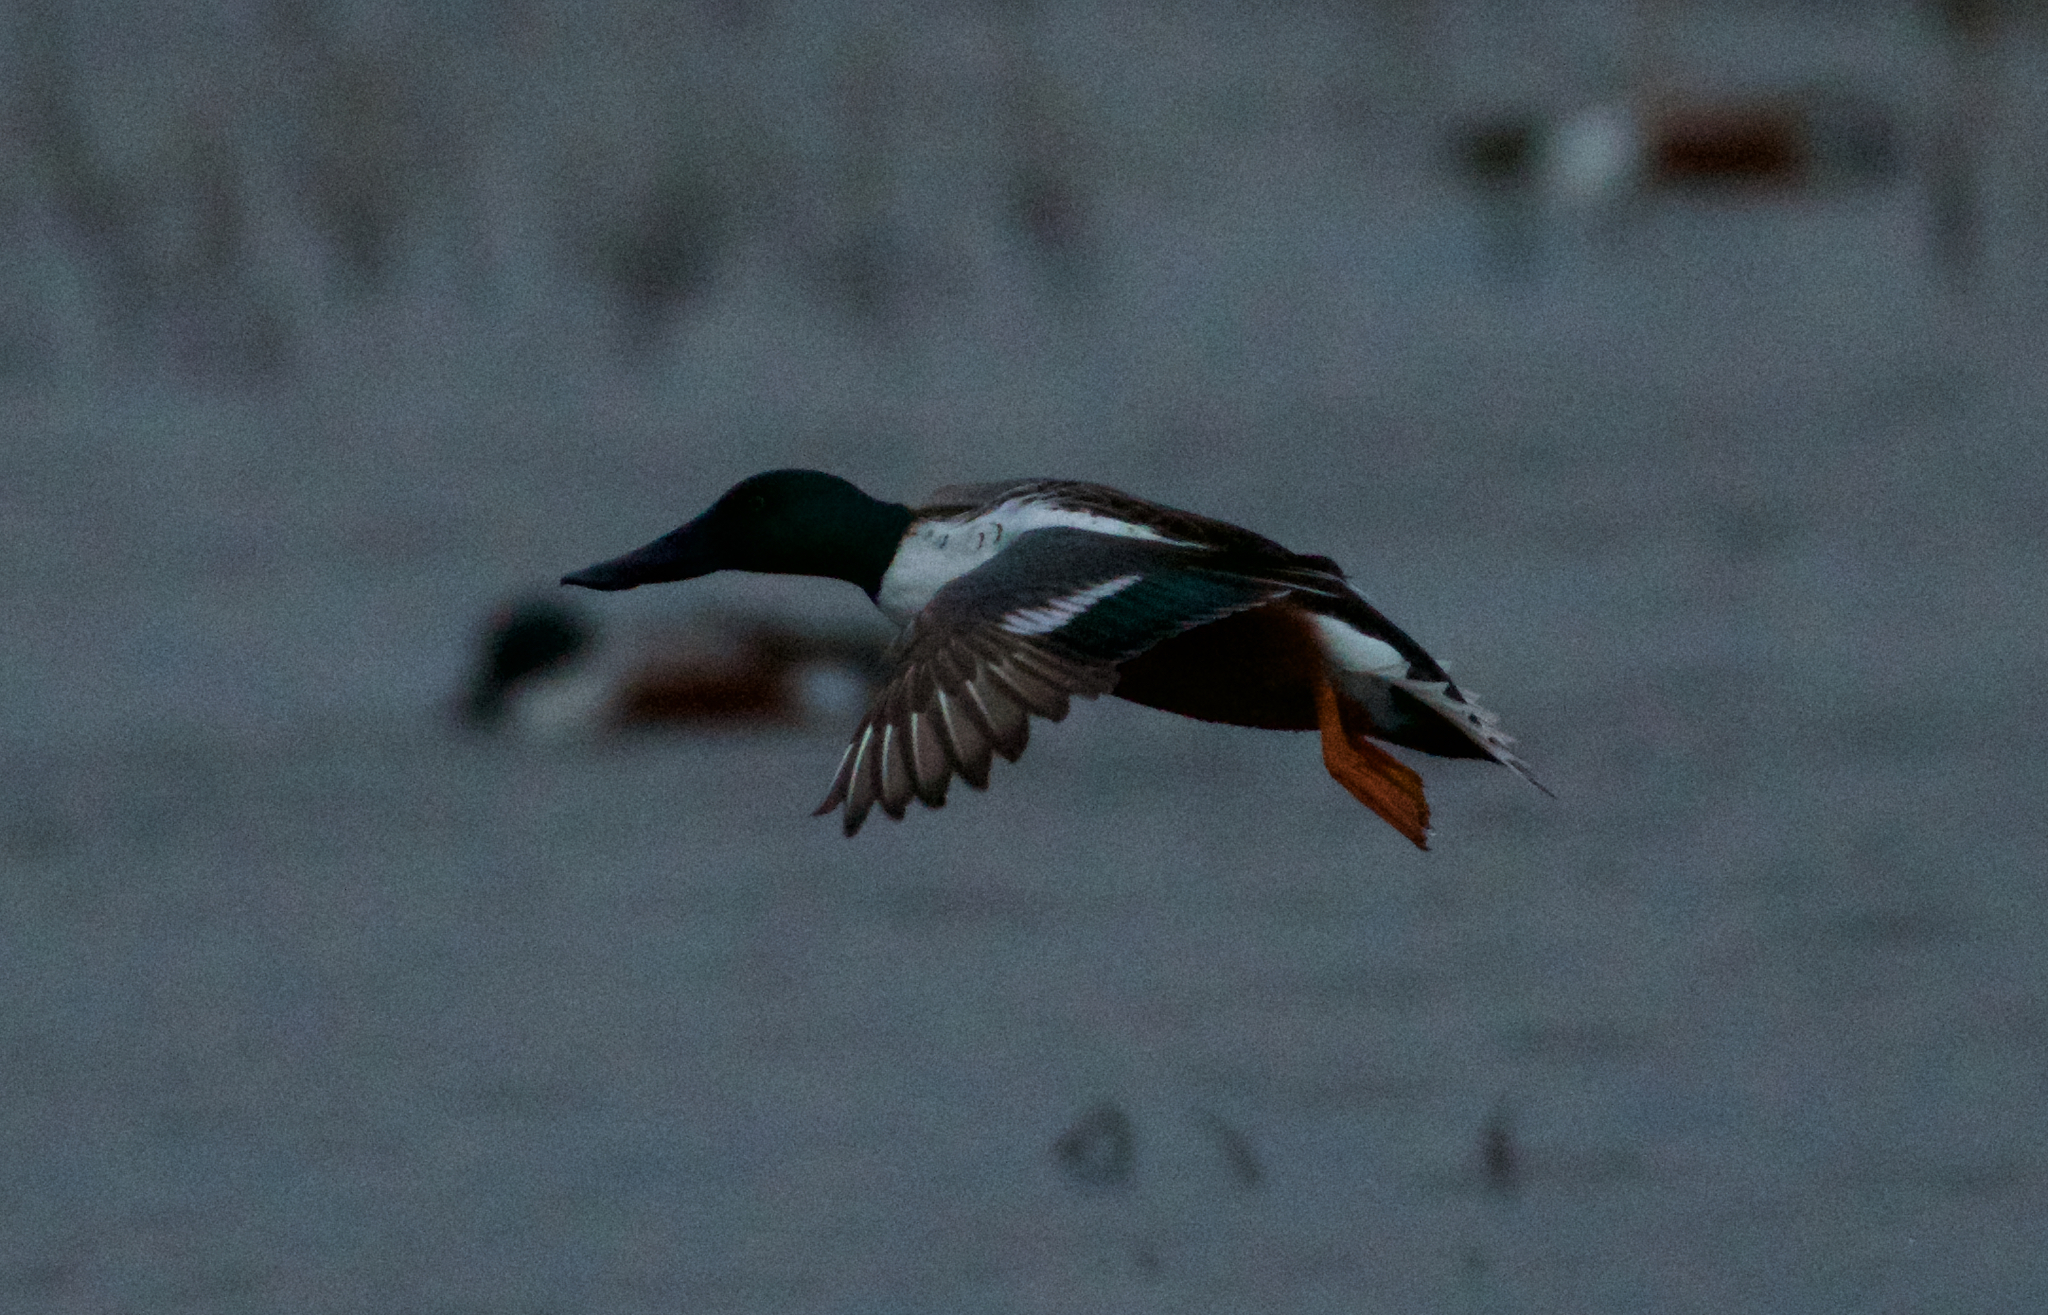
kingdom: Animalia
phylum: Chordata
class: Aves
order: Anseriformes
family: Anatidae
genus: Spatula
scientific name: Spatula clypeata
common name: Northern shoveler
